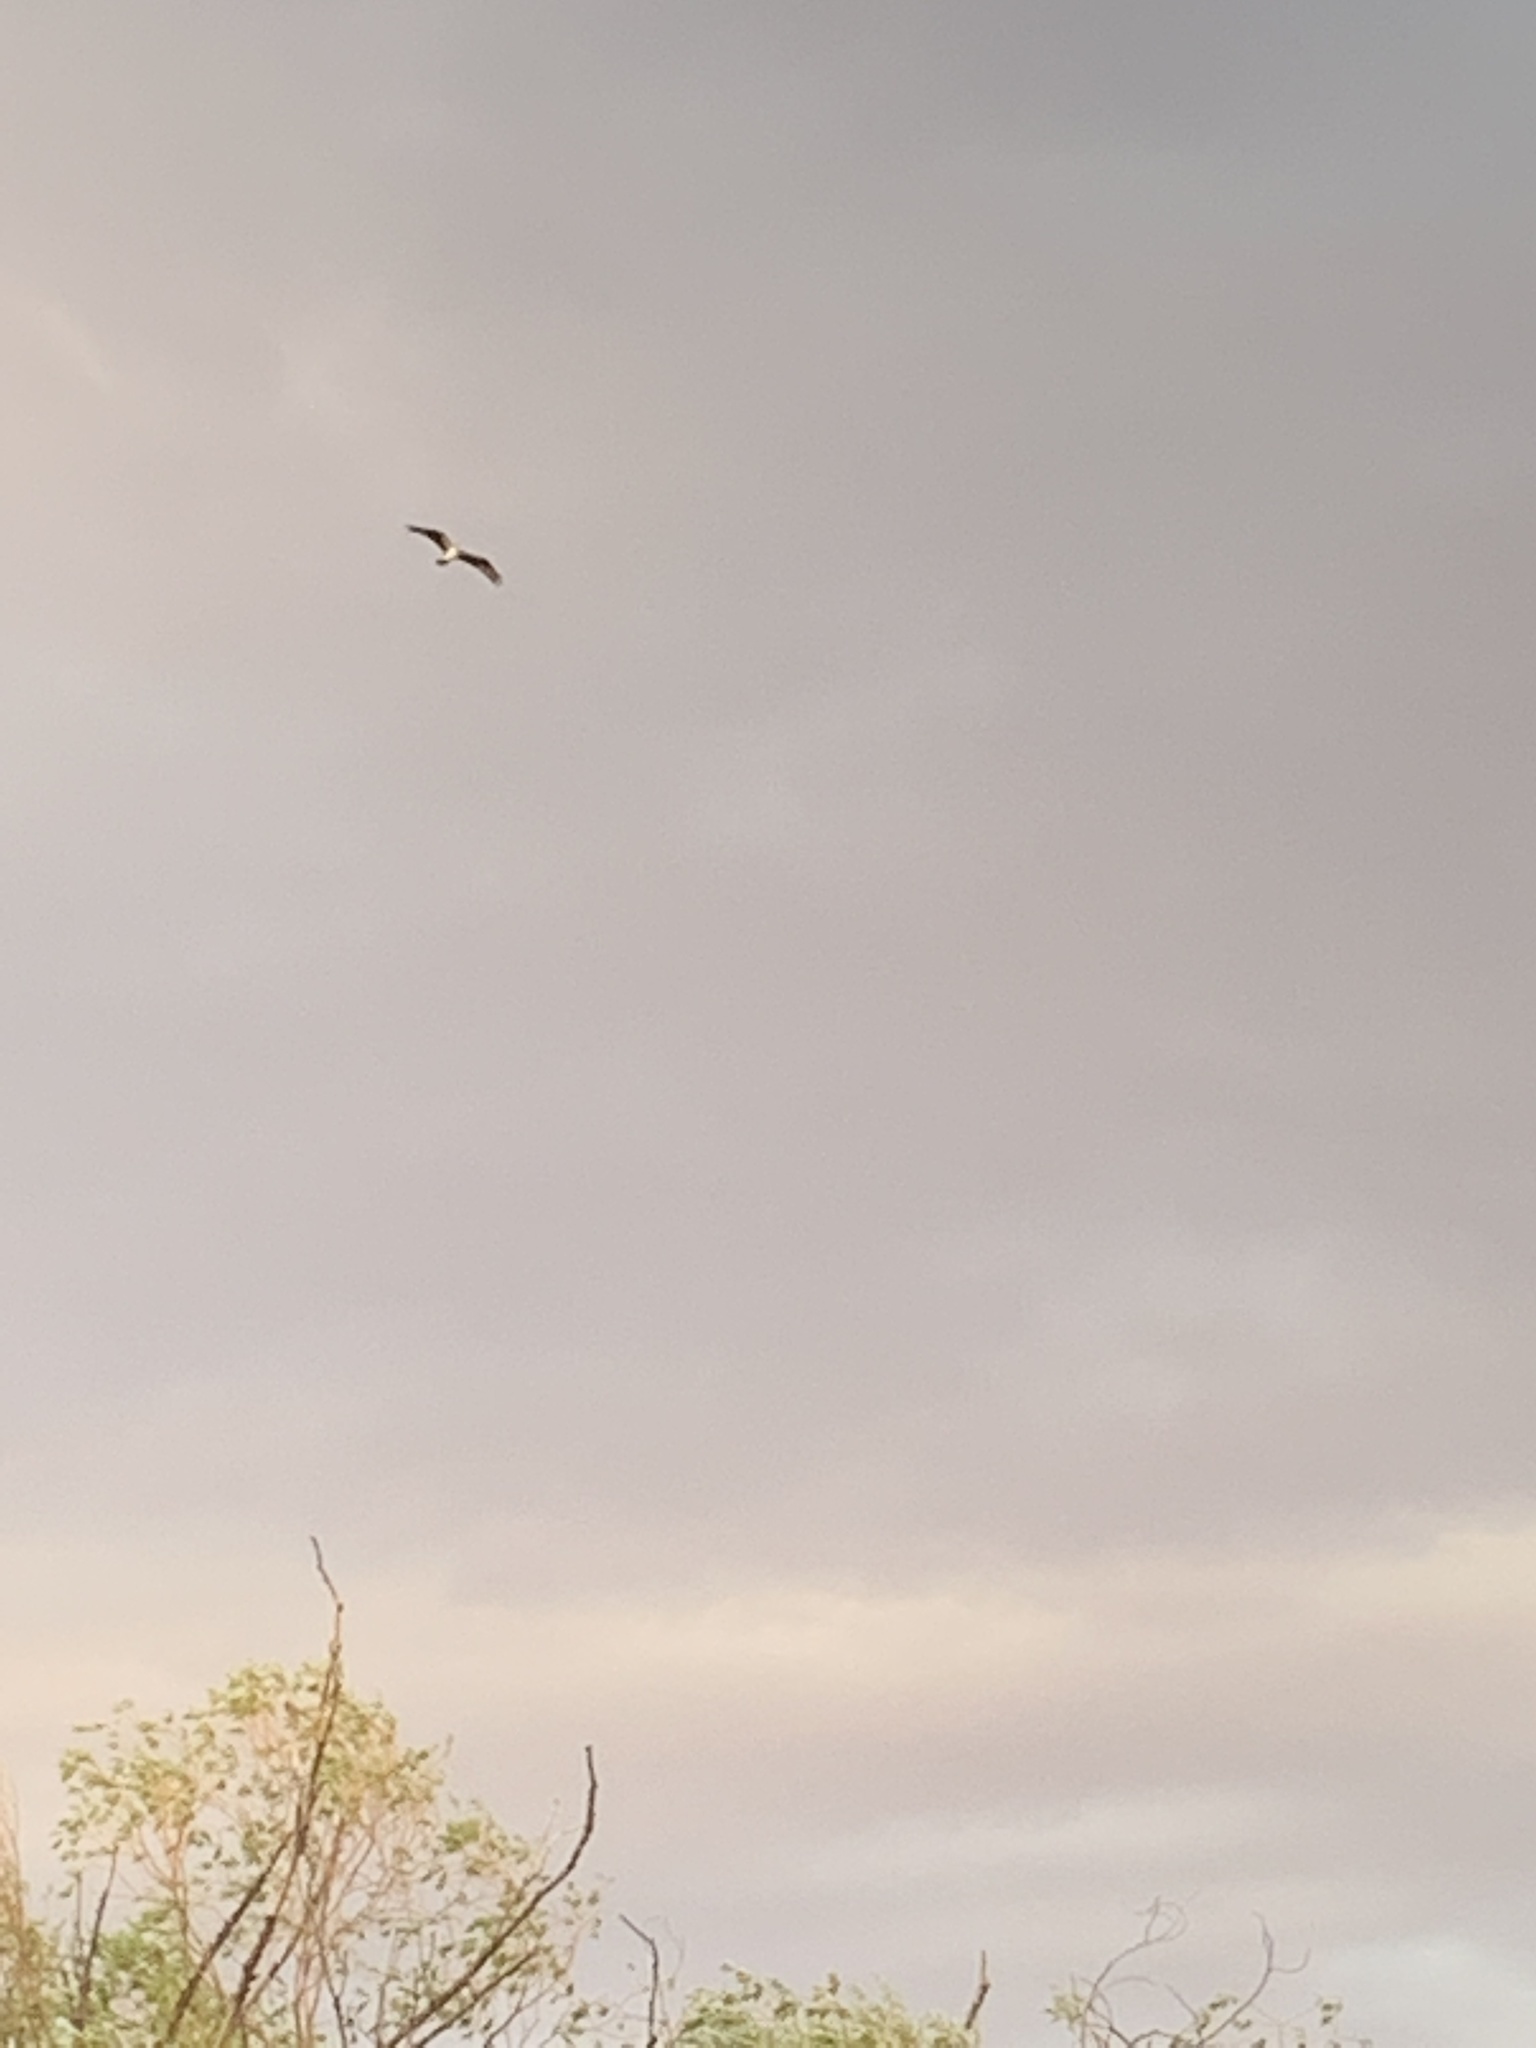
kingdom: Animalia
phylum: Chordata
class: Aves
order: Accipitriformes
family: Pandionidae
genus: Pandion
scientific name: Pandion haliaetus
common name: Osprey
